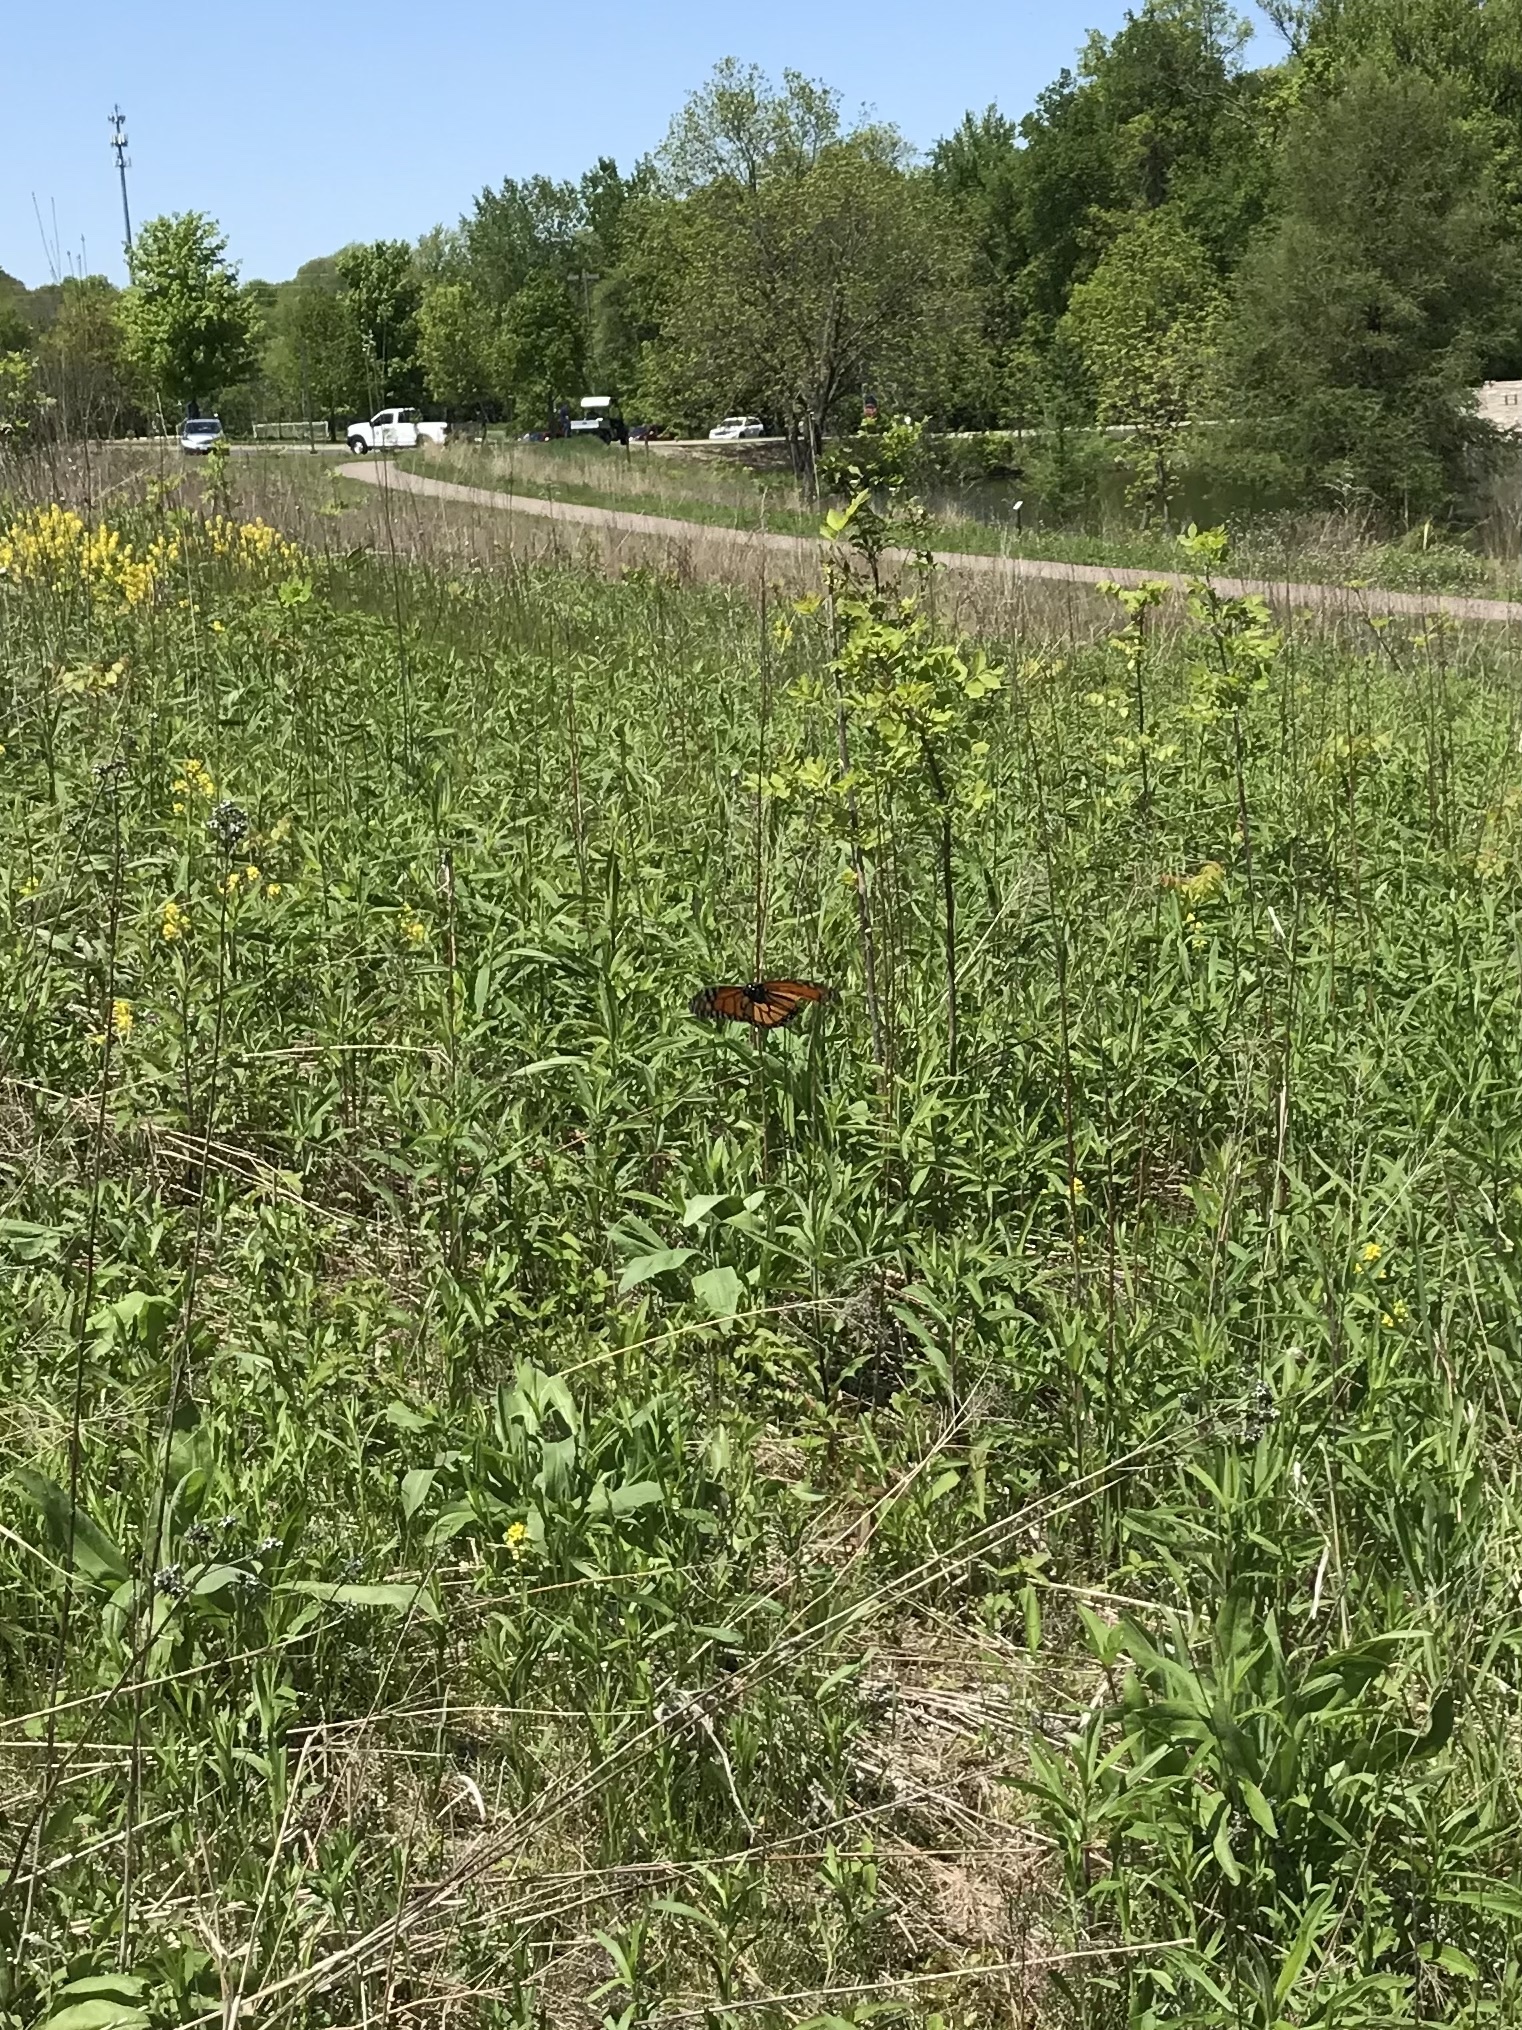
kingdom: Animalia
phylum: Arthropoda
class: Insecta
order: Lepidoptera
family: Nymphalidae
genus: Danaus
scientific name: Danaus plexippus
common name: Monarch
